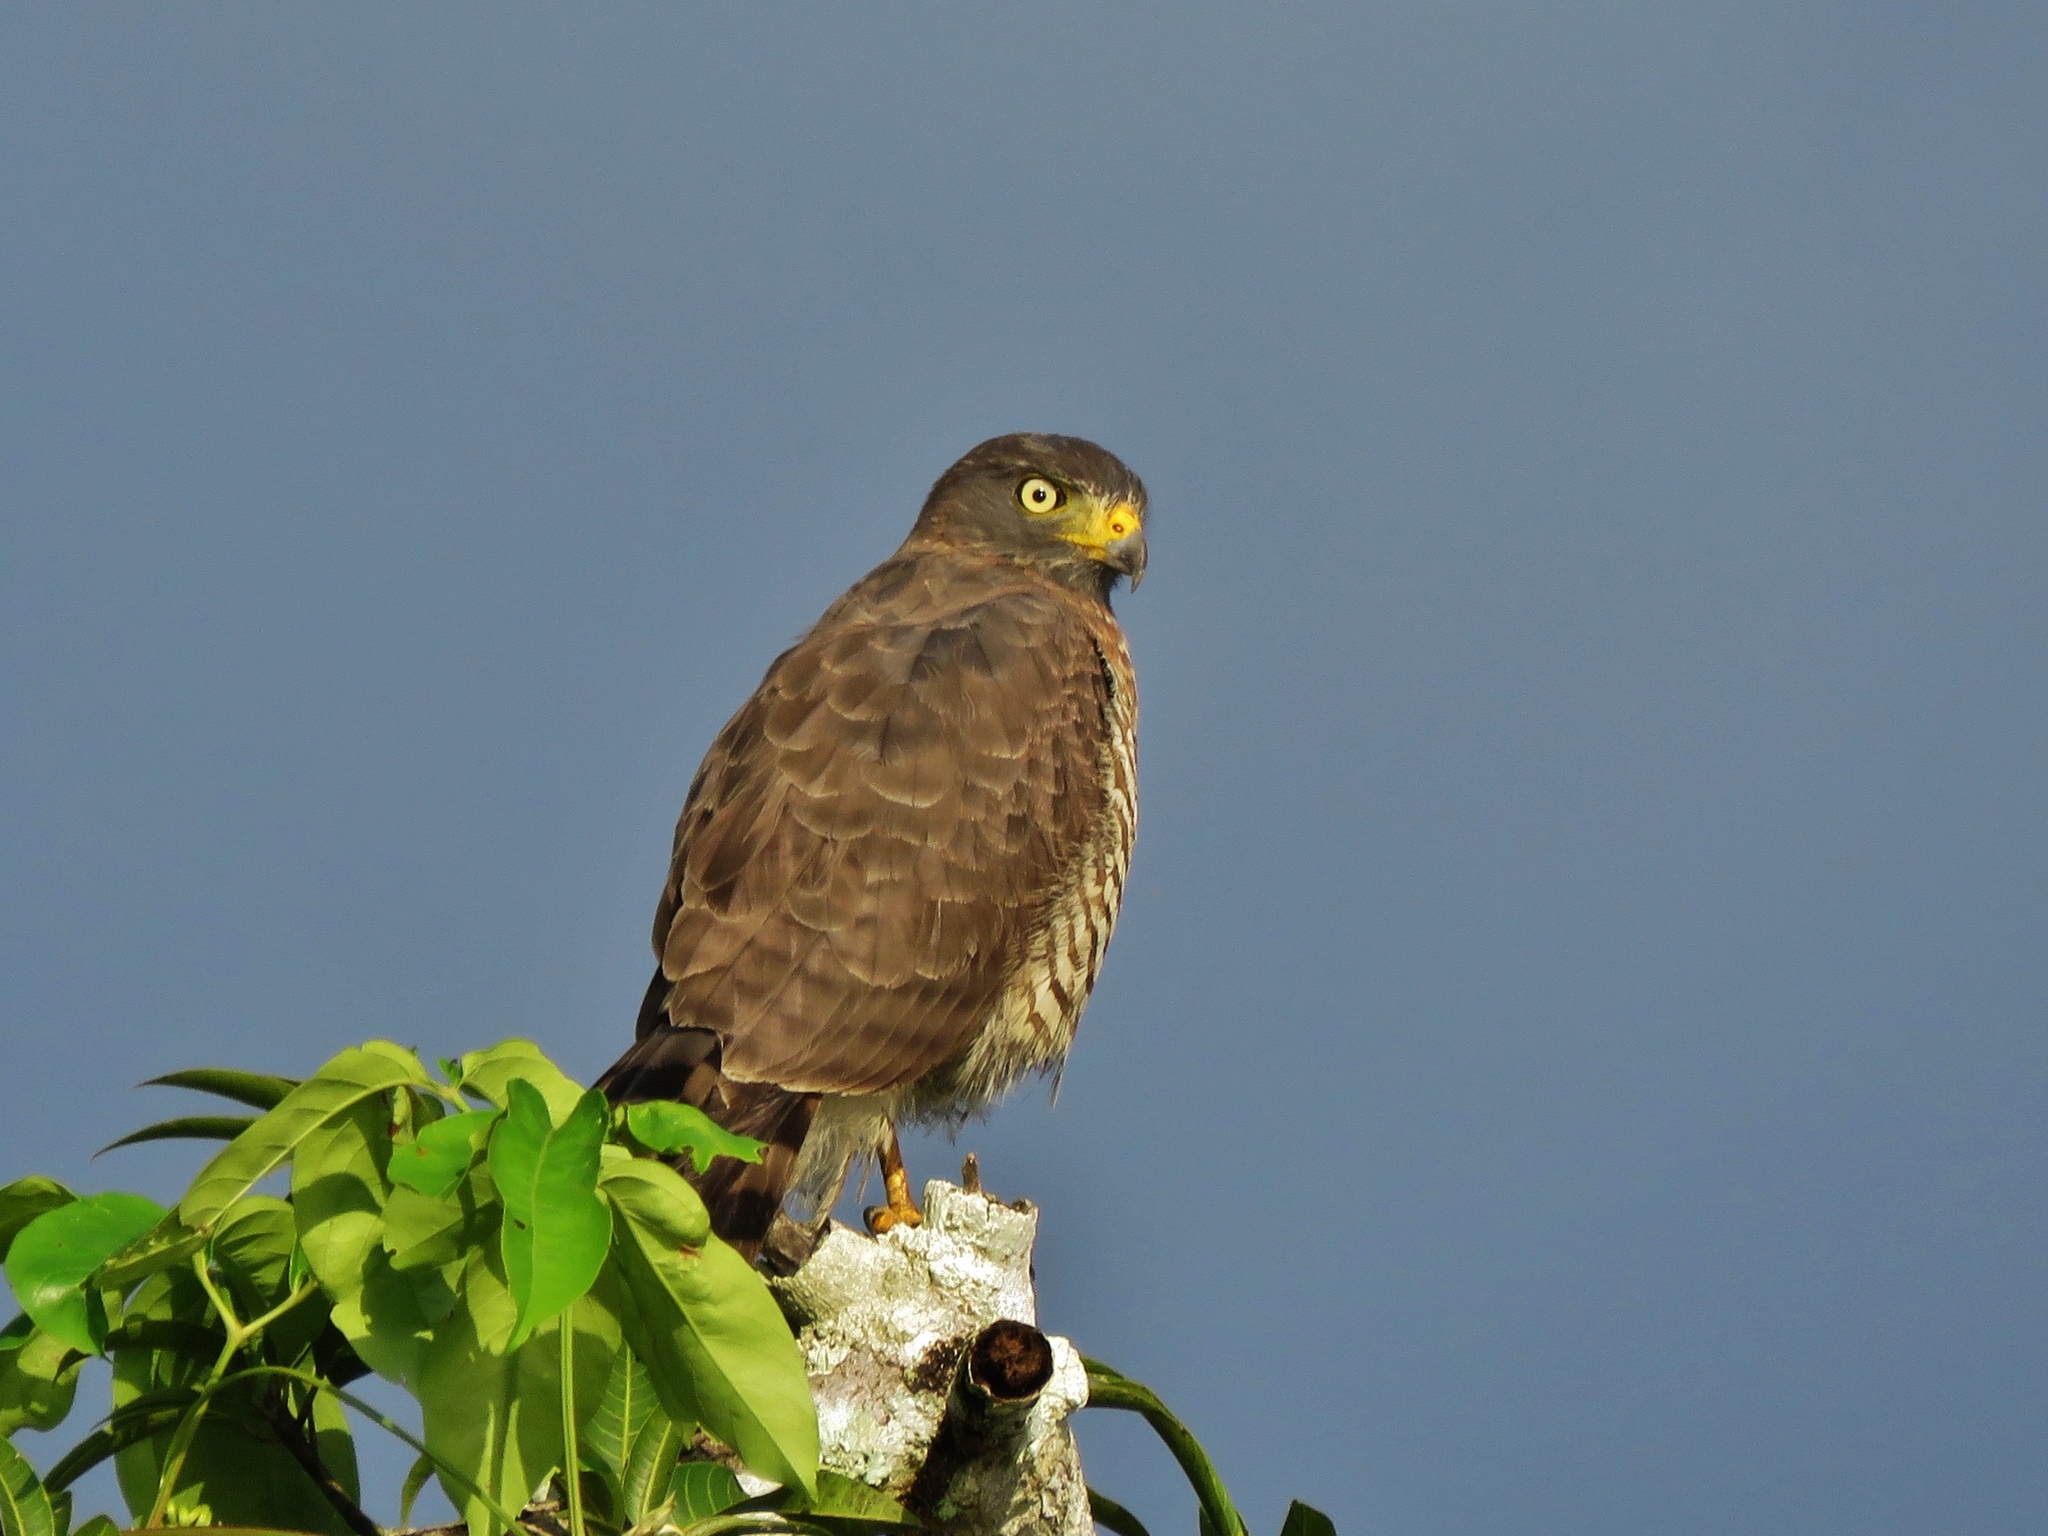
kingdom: Animalia
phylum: Chordata
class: Aves
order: Accipitriformes
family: Accipitridae
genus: Rupornis
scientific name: Rupornis magnirostris
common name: Roadside hawk
